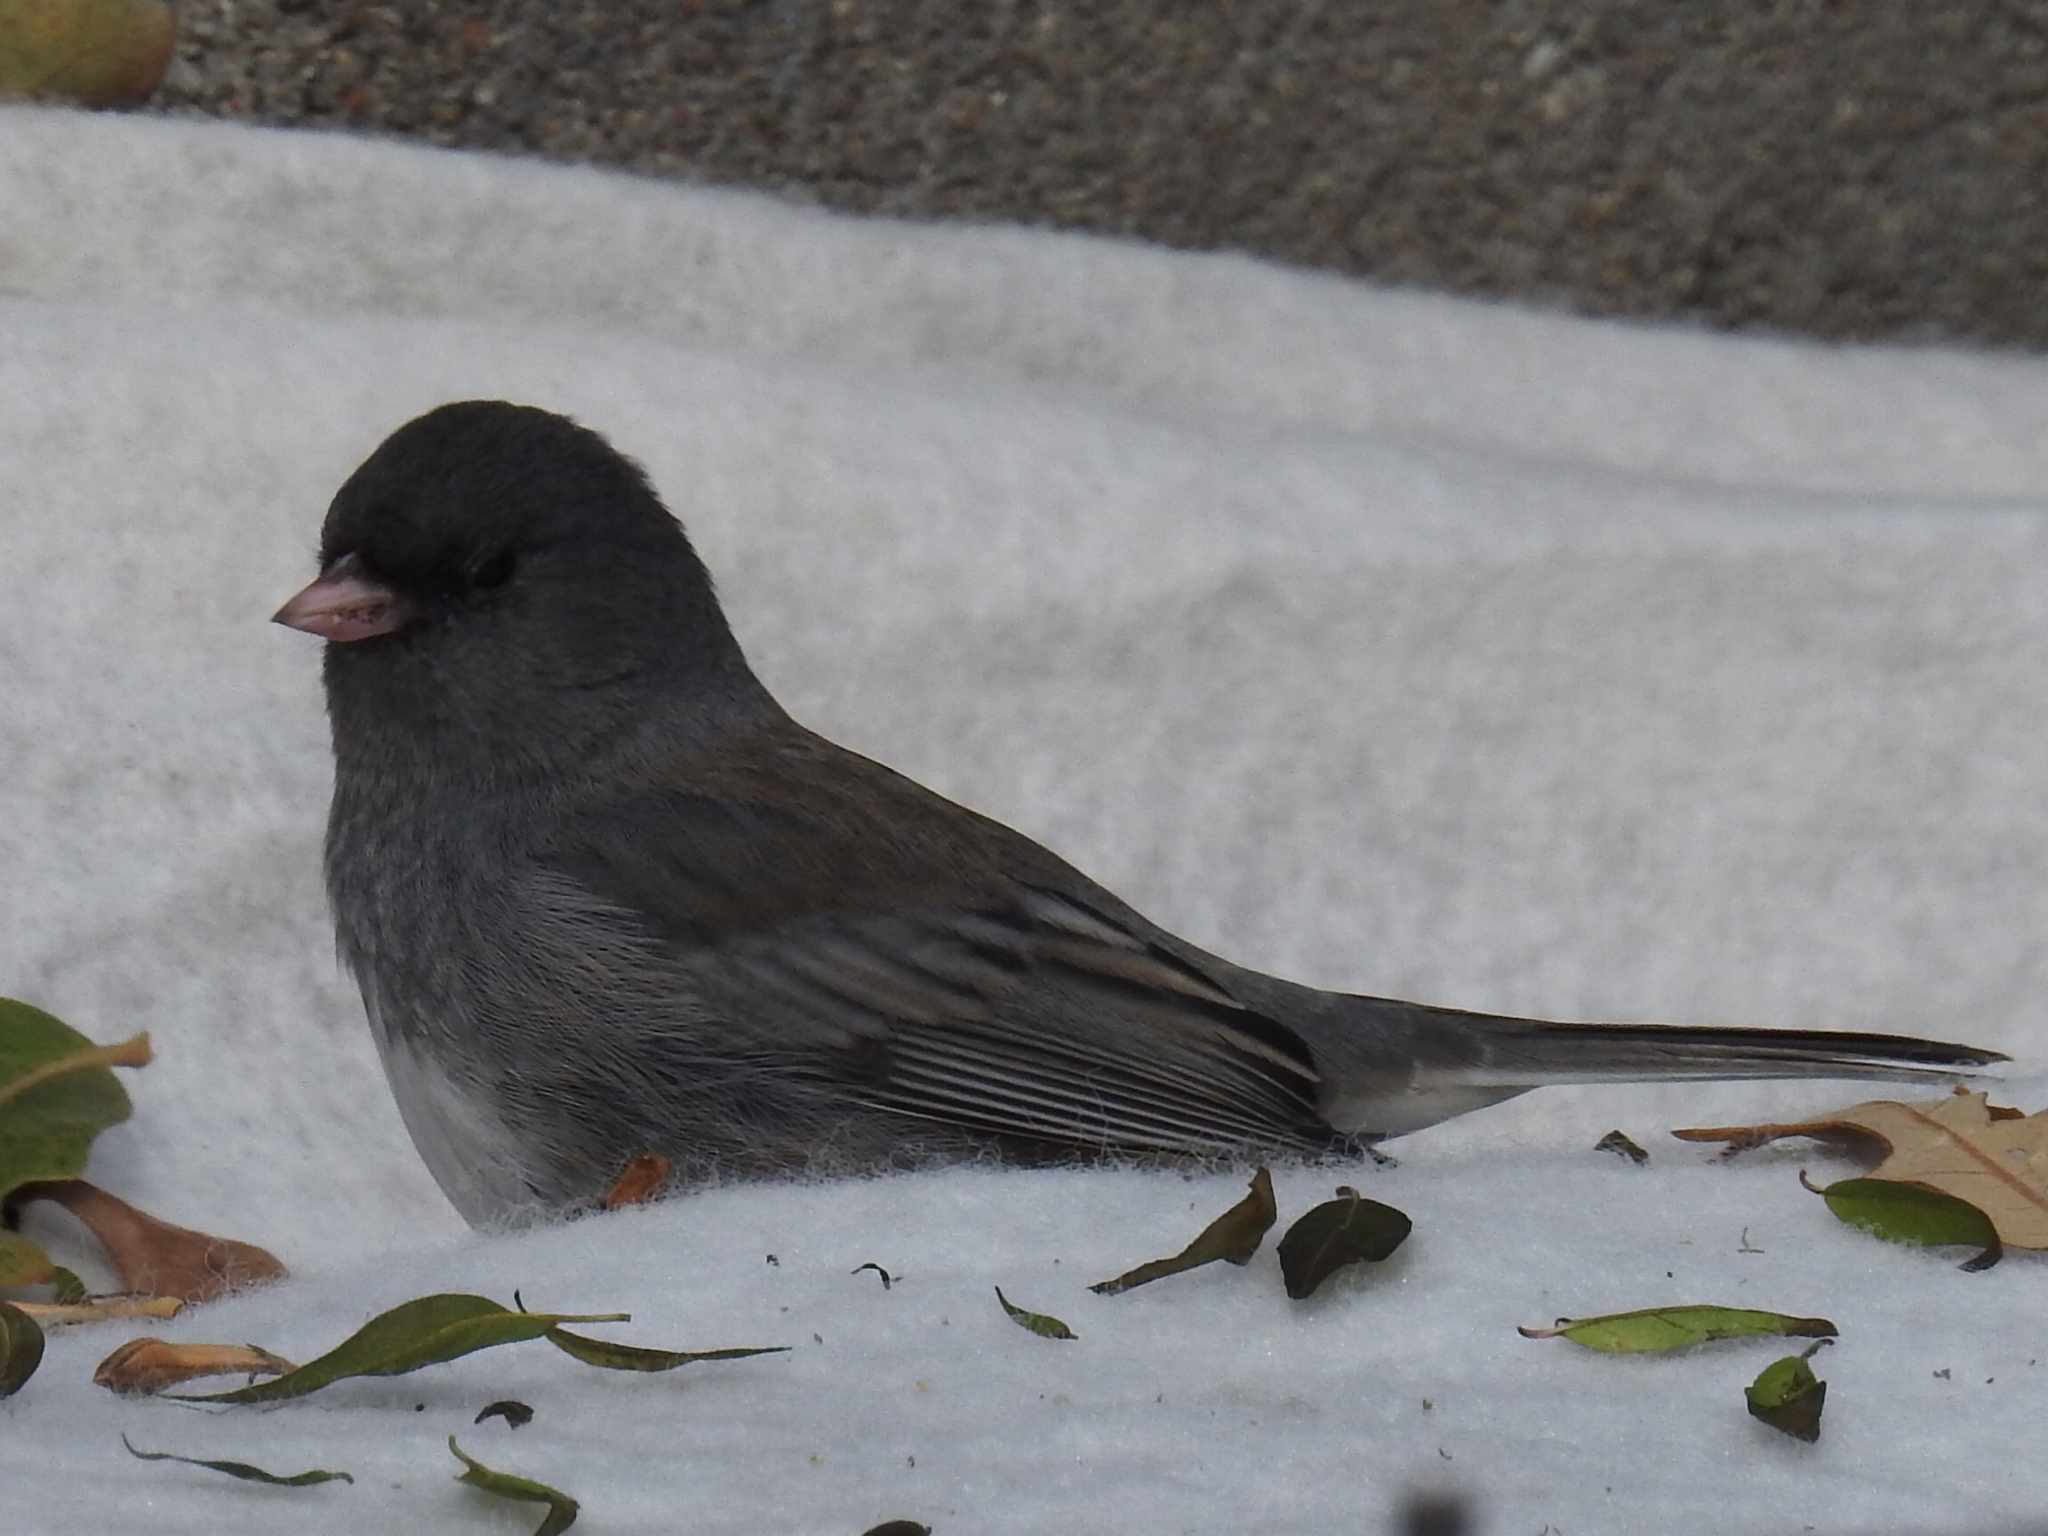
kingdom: Animalia
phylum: Chordata
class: Aves
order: Passeriformes
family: Passerellidae
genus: Junco
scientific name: Junco hyemalis
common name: Dark-eyed junco
